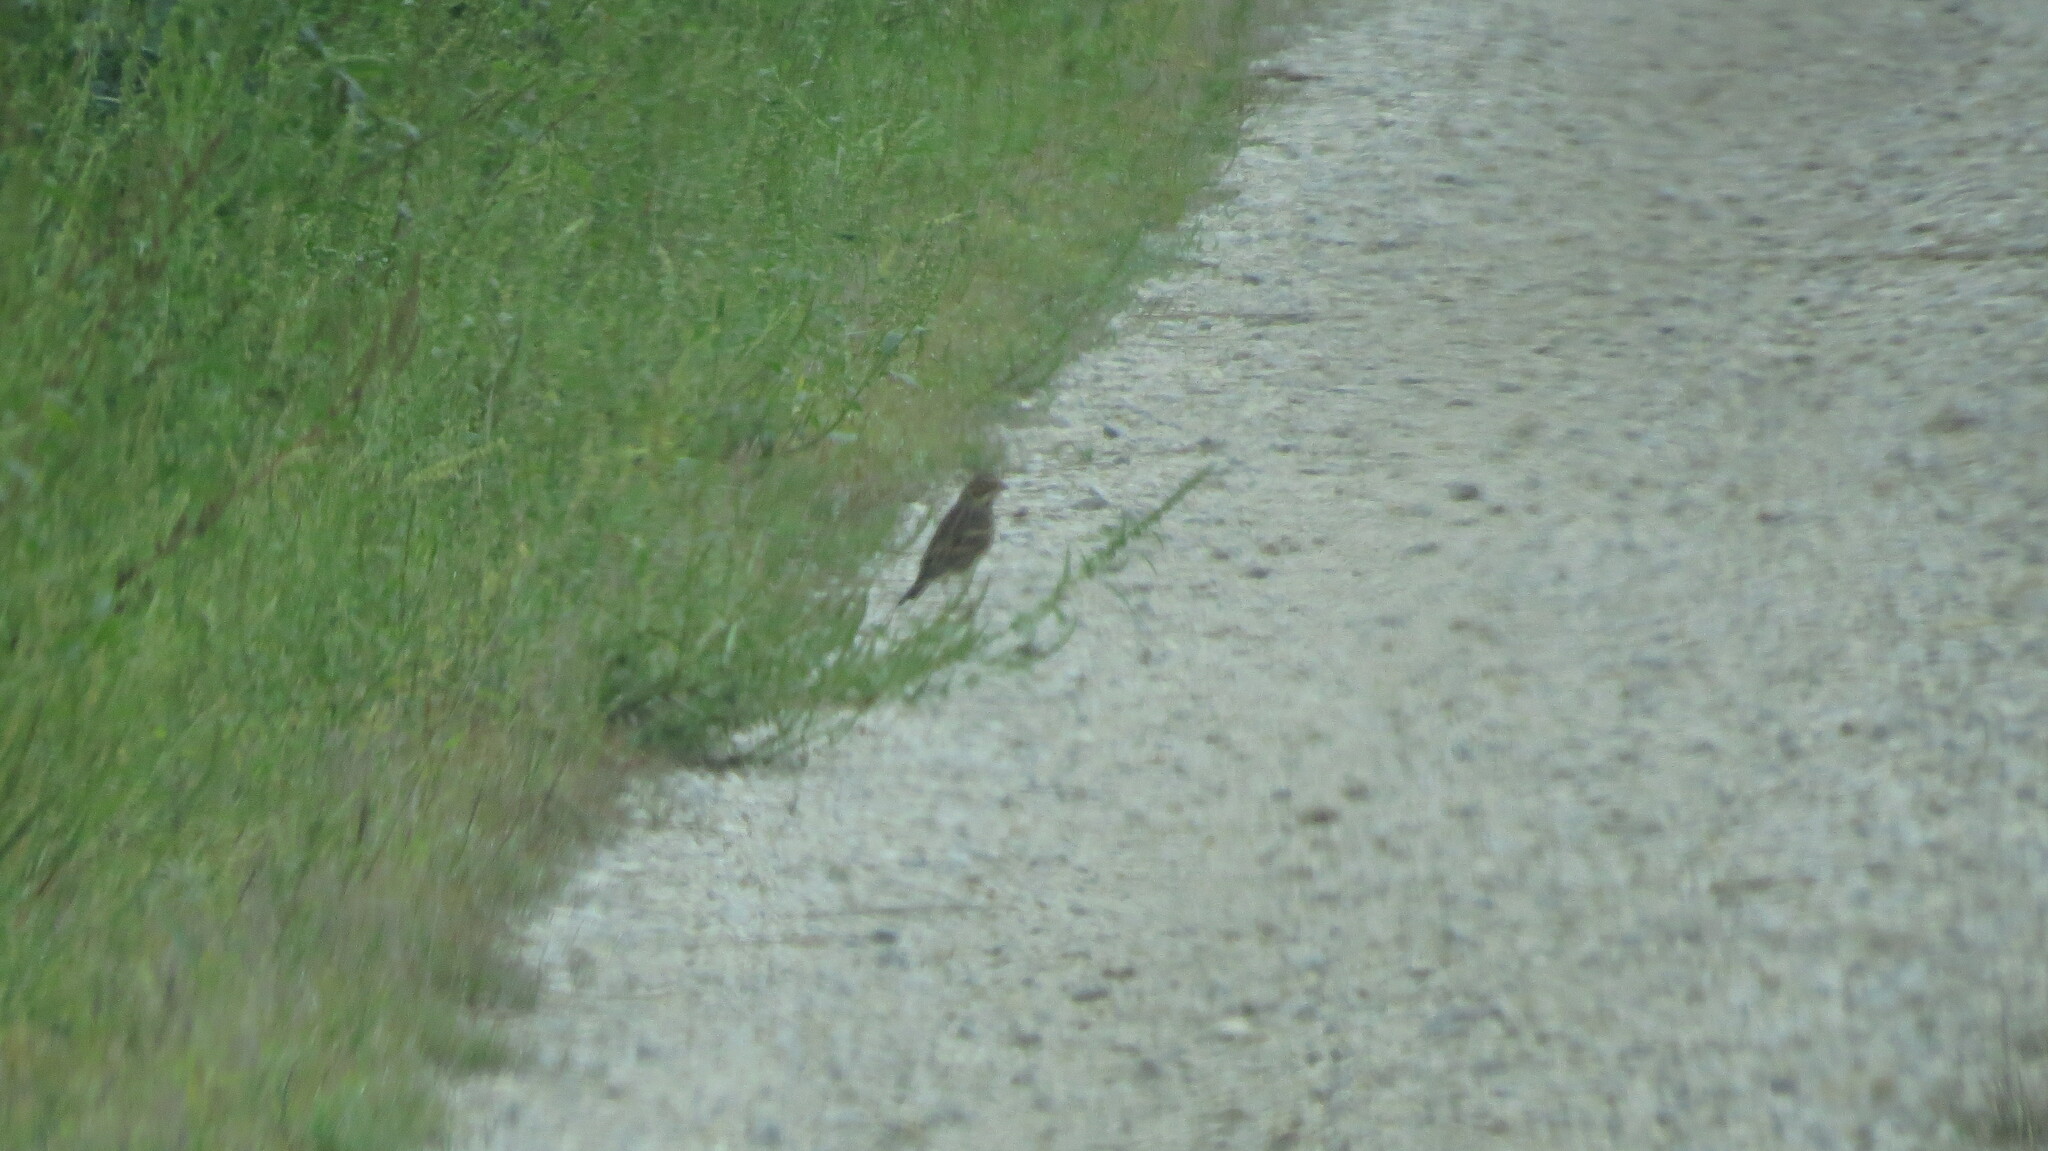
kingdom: Animalia
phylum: Chordata
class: Aves
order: Passeriformes
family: Passerellidae
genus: Pooecetes
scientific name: Pooecetes gramineus
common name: Vesper sparrow
